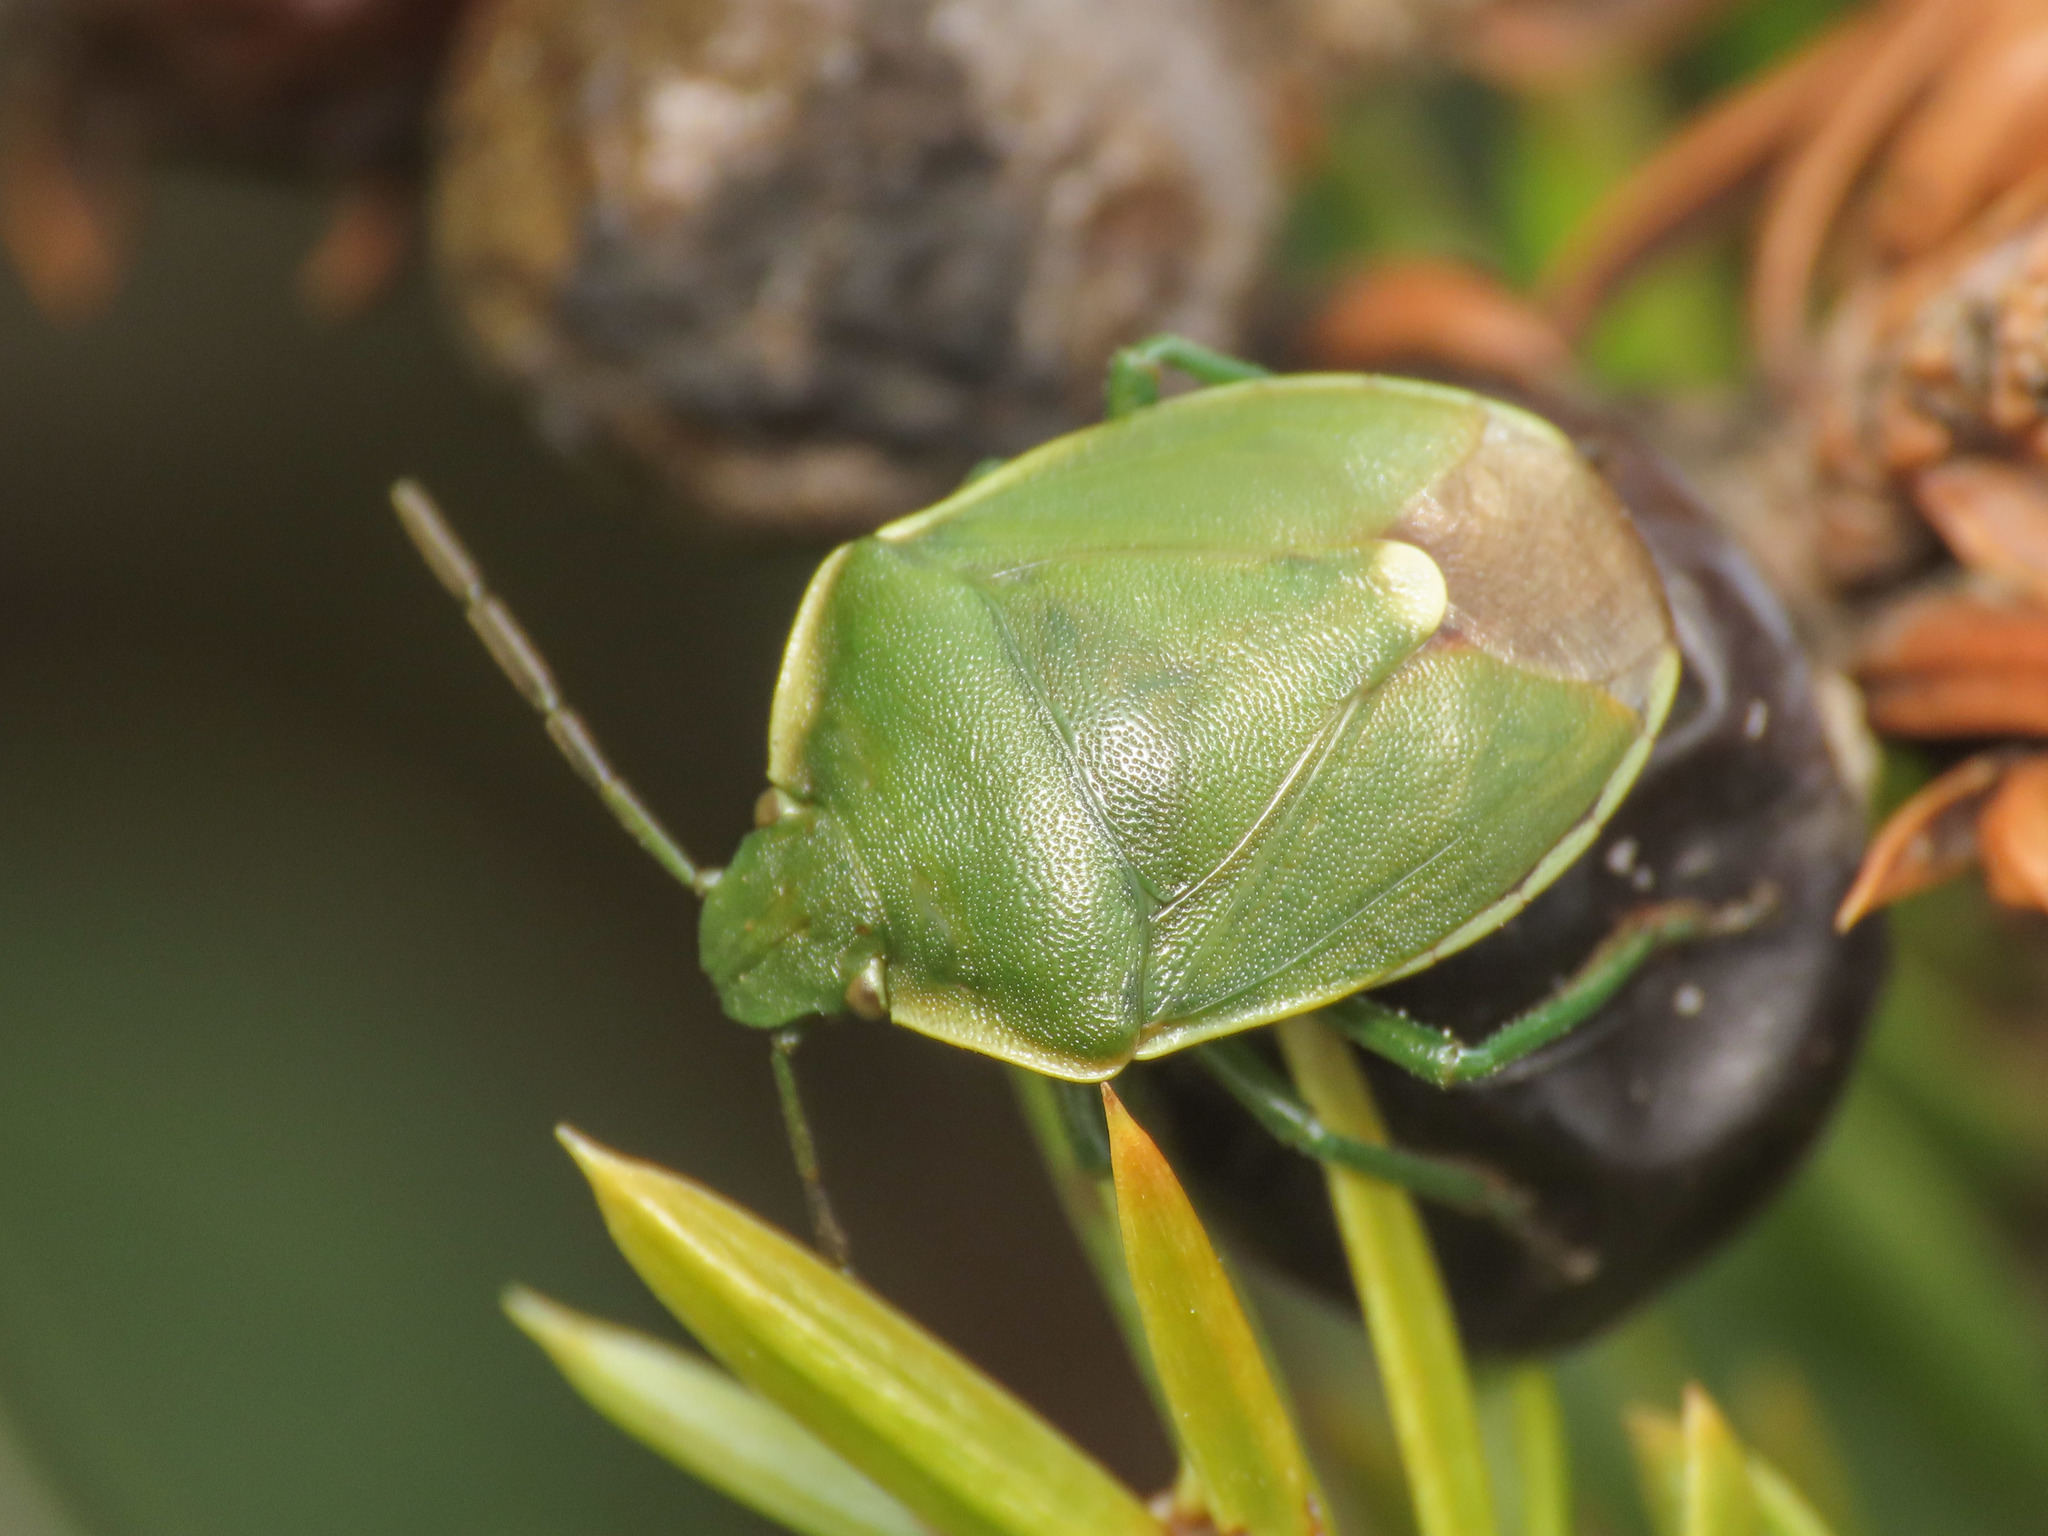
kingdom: Animalia
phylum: Arthropoda
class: Insecta
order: Hemiptera
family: Pentatomidae
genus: Chlorochroa
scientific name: Chlorochroa juniperina
